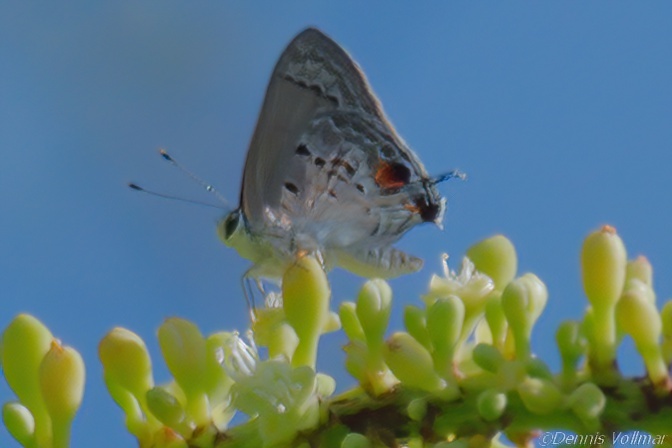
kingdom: Animalia
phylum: Arthropoda
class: Insecta
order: Lepidoptera
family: Lycaenidae
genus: Callicista
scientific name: Callicista columella
